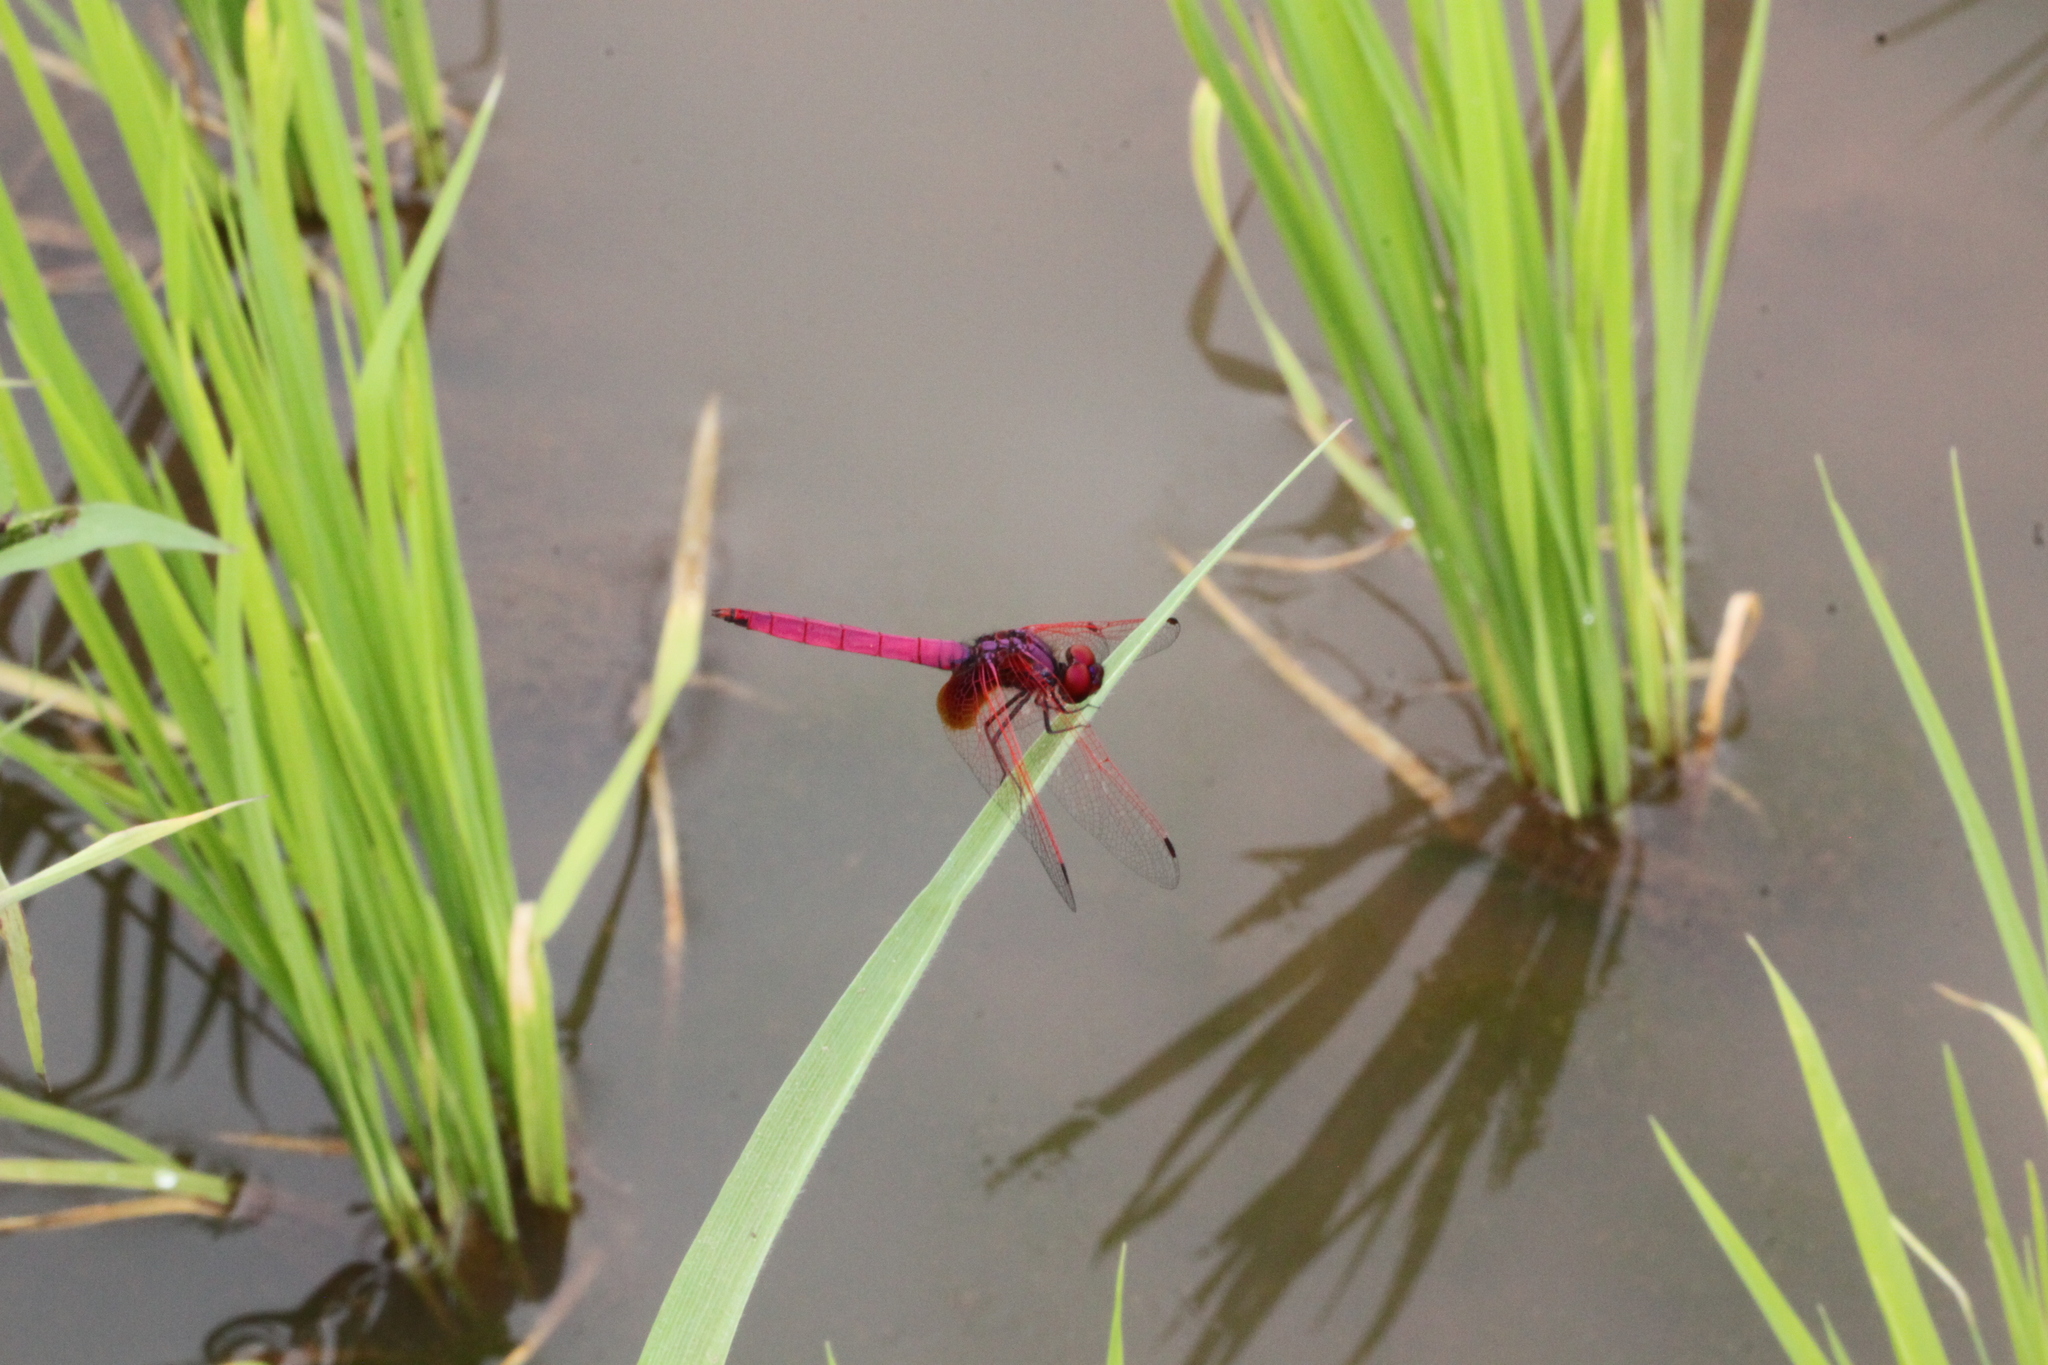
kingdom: Animalia
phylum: Arthropoda
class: Insecta
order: Odonata
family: Libellulidae
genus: Trithemis
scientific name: Trithemis aurora
